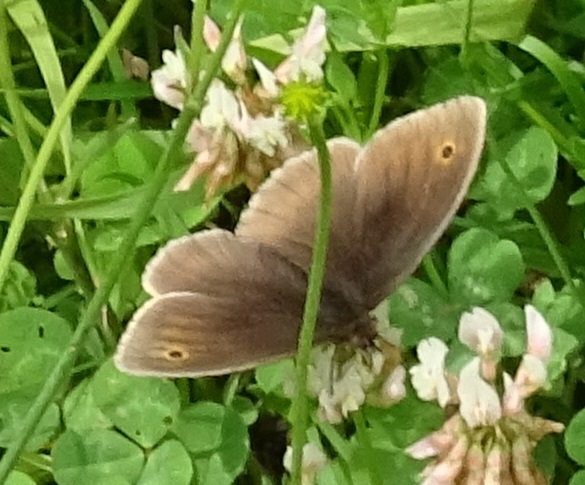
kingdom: Animalia
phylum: Arthropoda
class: Insecta
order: Lepidoptera
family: Nymphalidae
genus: Aphantopus
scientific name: Aphantopus hyperantus
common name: Ringlet
